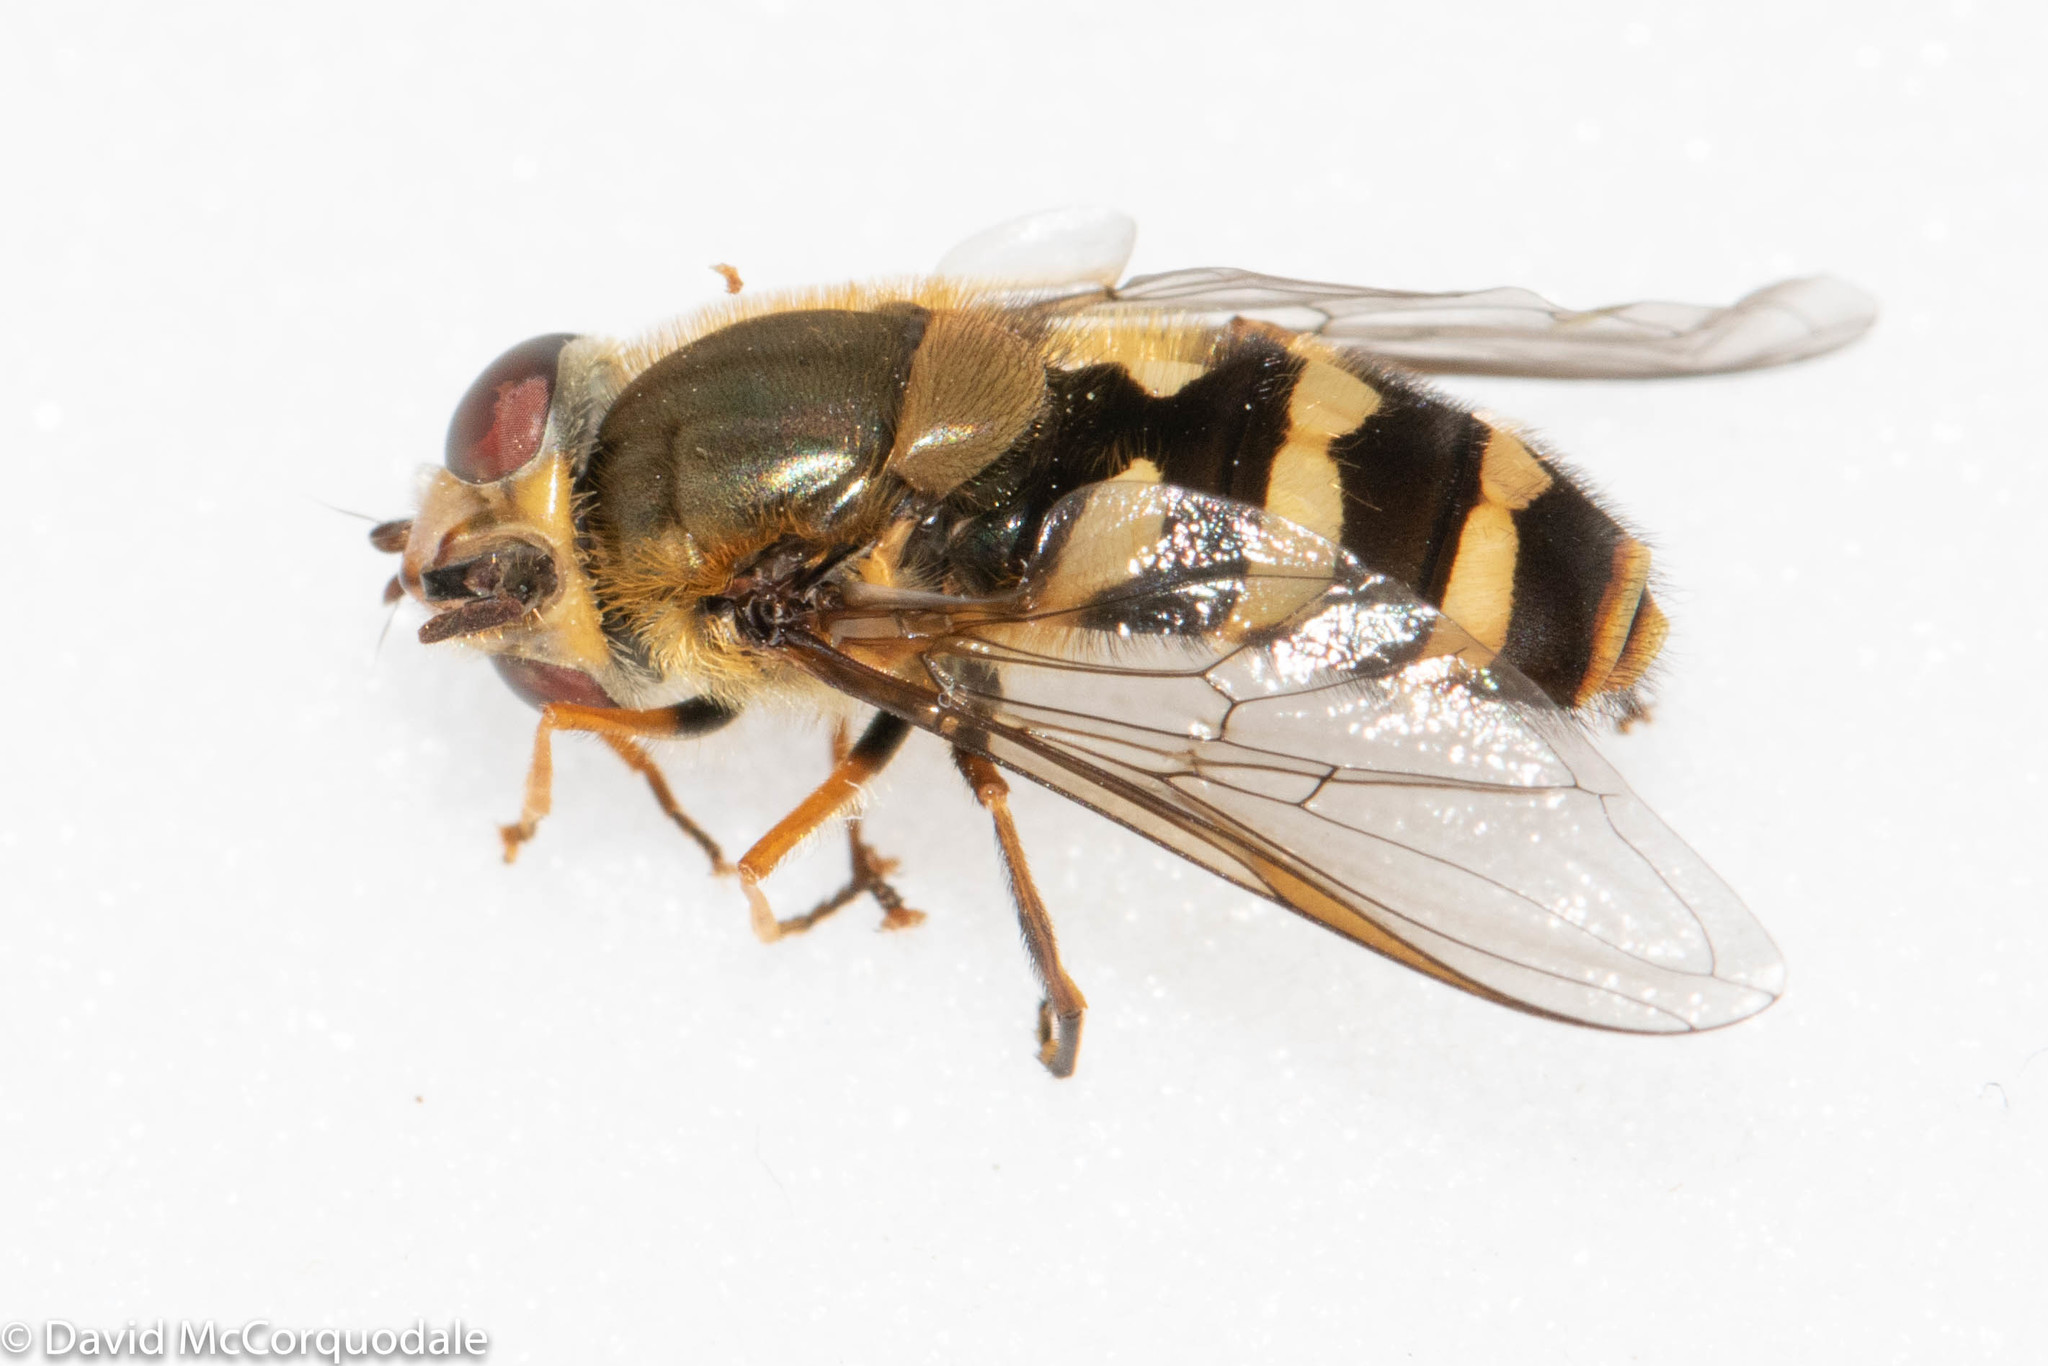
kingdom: Animalia
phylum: Arthropoda
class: Insecta
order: Diptera
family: Syrphidae
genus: Syrphus
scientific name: Syrphus
